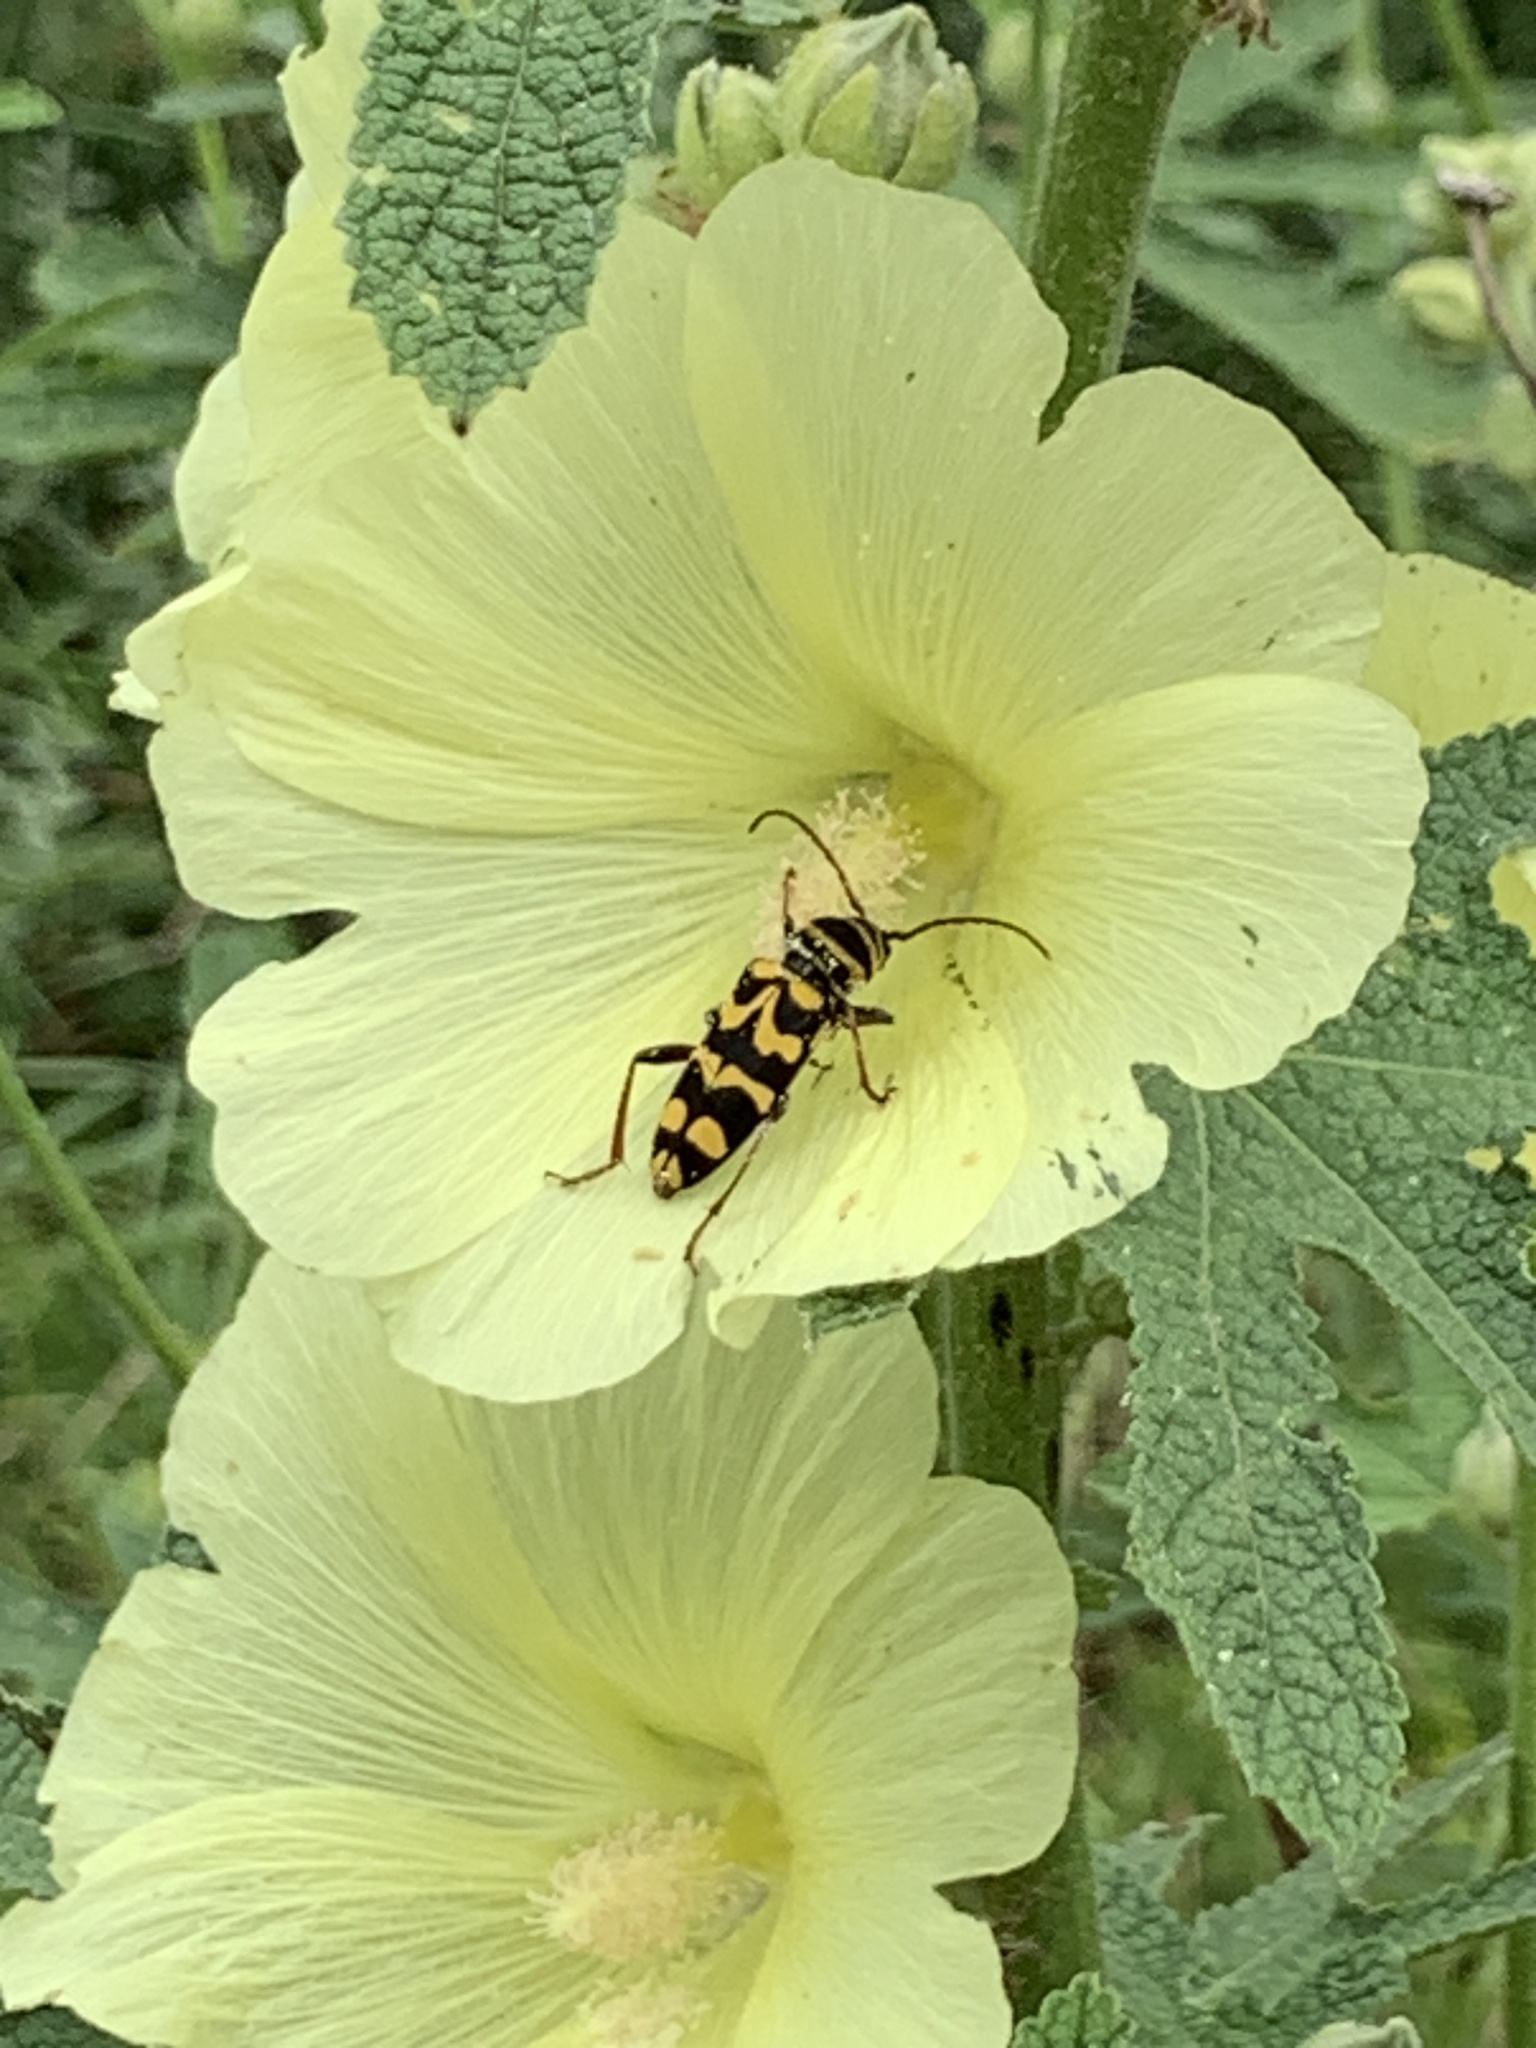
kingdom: Animalia
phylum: Arthropoda
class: Insecta
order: Coleoptera
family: Cerambycidae
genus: Neoplagionotus
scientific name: Neoplagionotus bobelayei
